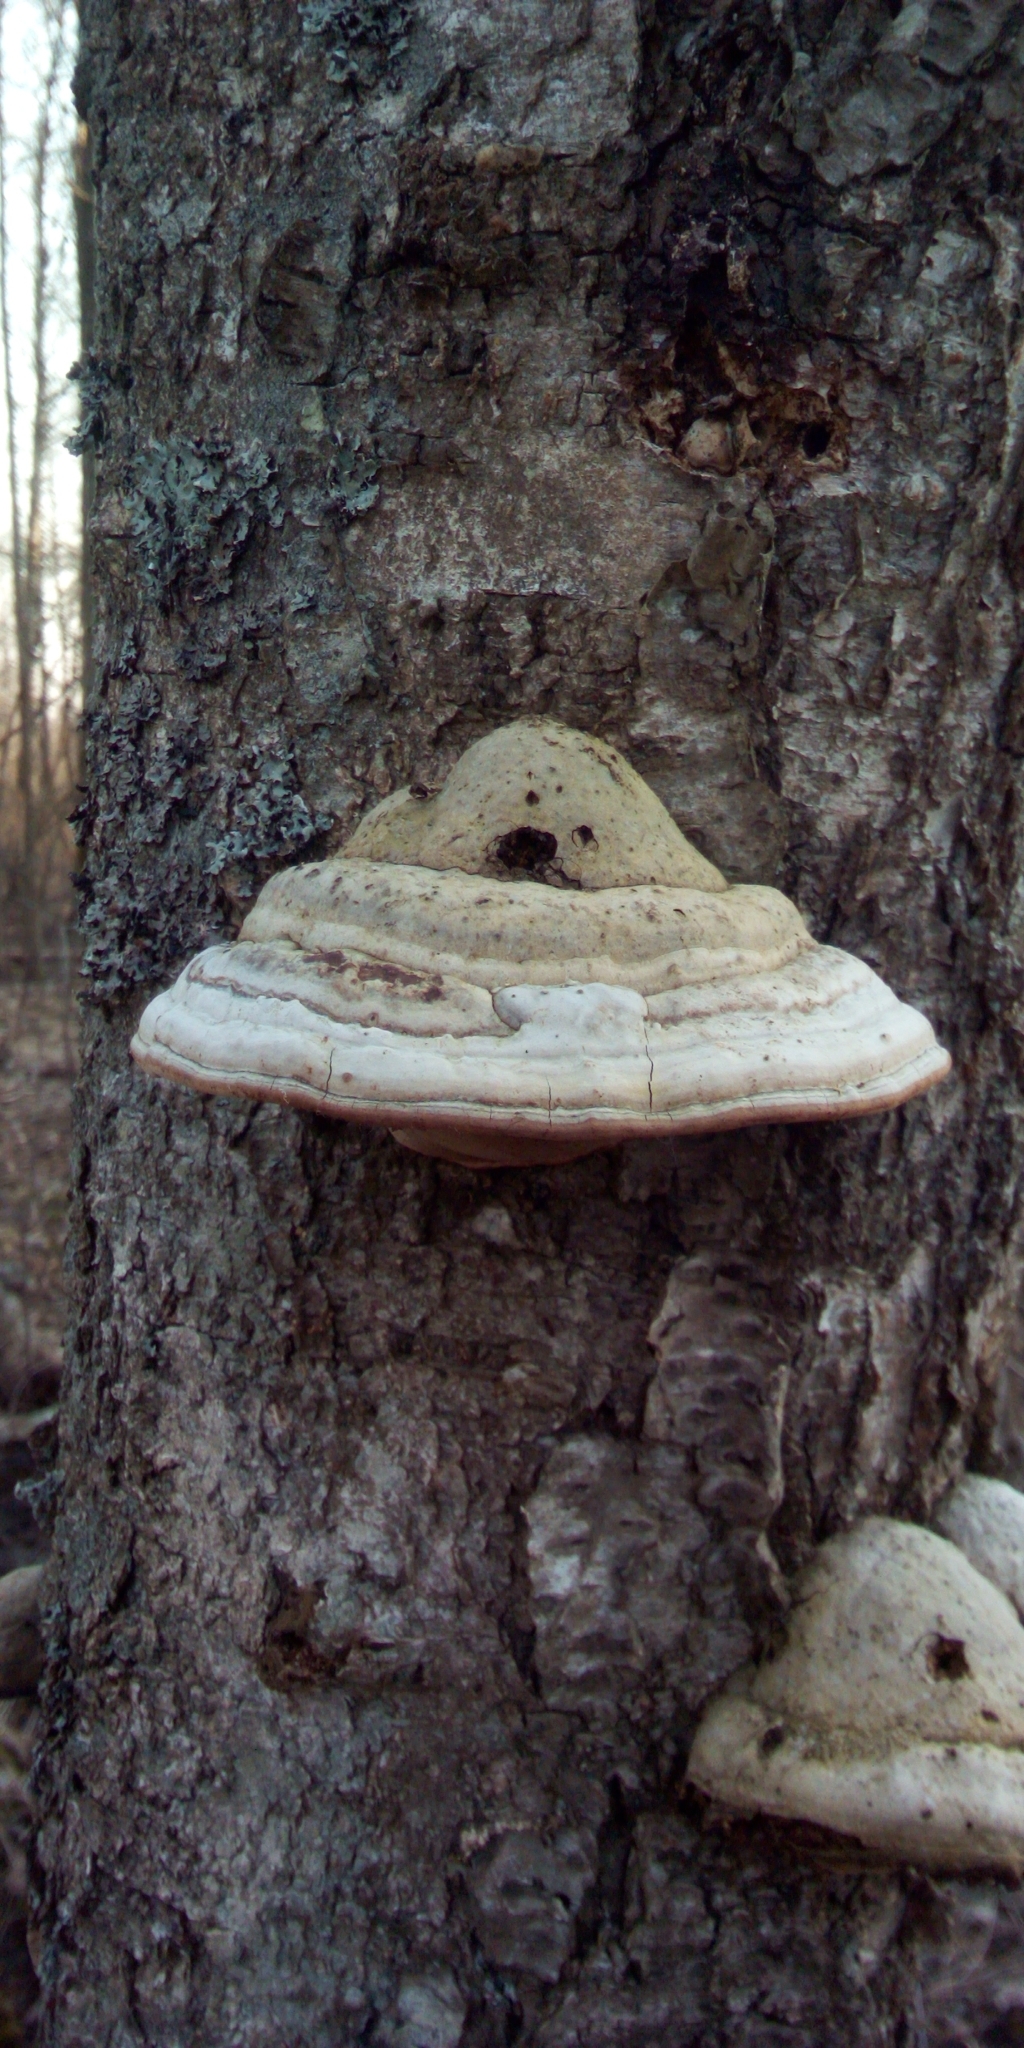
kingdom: Fungi
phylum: Basidiomycota
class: Agaricomycetes
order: Polyporales
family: Polyporaceae
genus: Fomes
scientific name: Fomes fomentarius
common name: Hoof fungus
